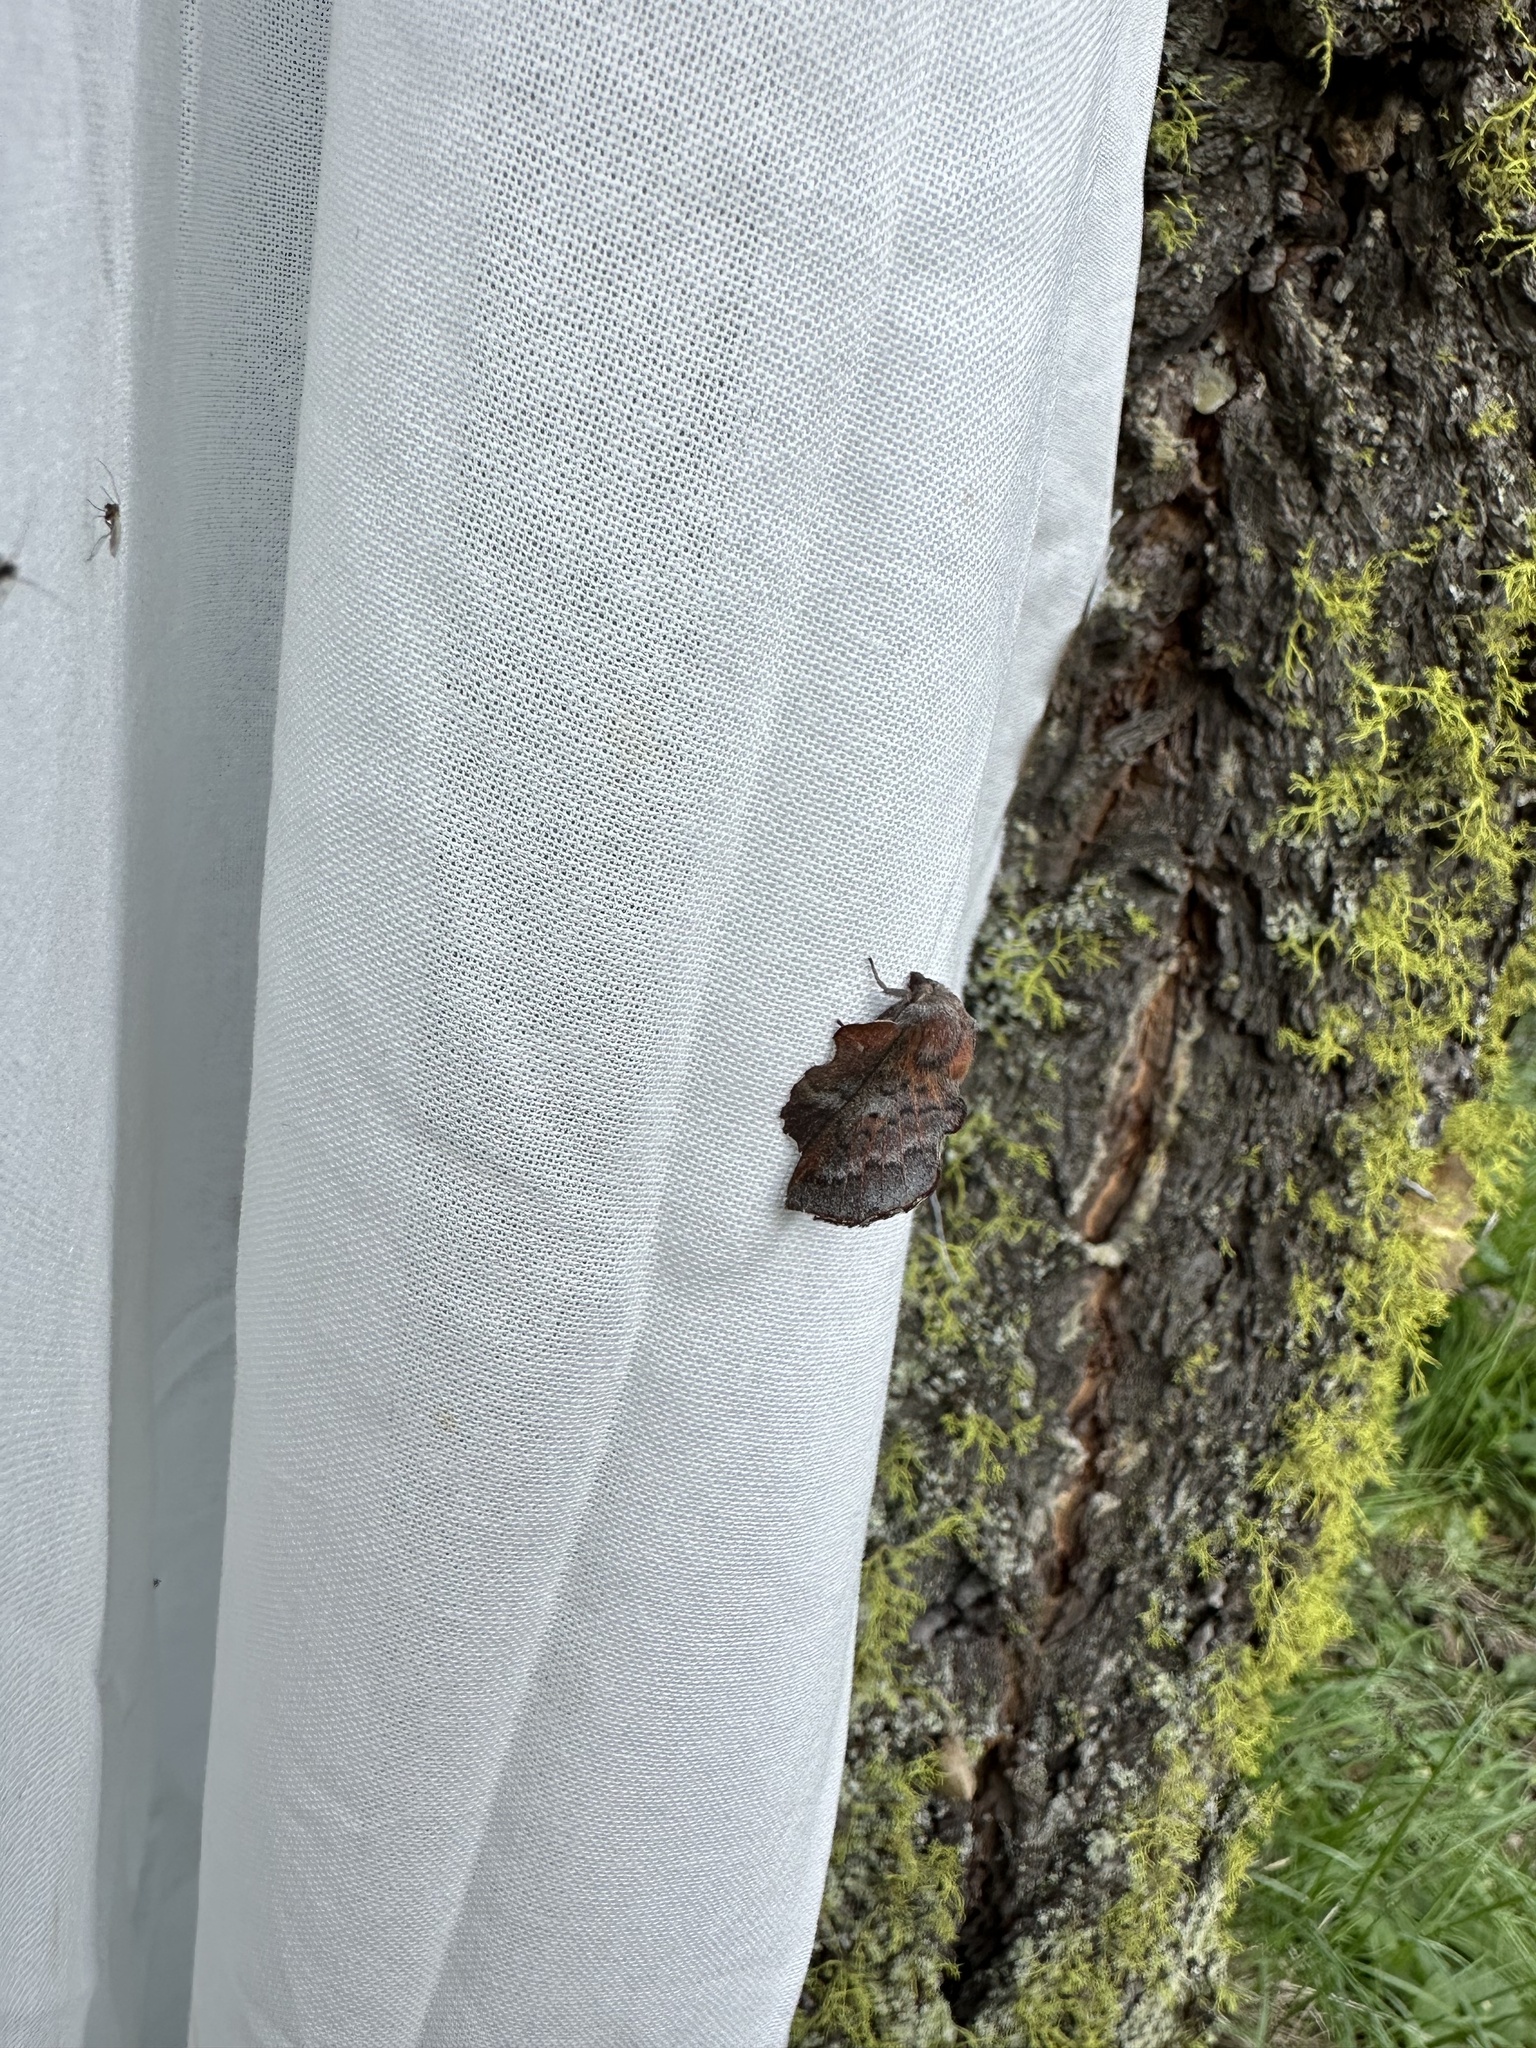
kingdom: Animalia
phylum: Arthropoda
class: Insecta
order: Lepidoptera
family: Lasiocampidae
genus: Phyllodesma
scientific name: Phyllodesma americana
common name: American lappet moth
